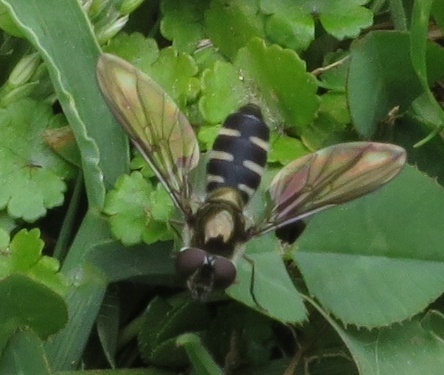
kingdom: Animalia
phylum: Arthropoda
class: Insecta
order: Diptera
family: Syrphidae
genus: Melangyna
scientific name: Melangyna novaezelandiae
